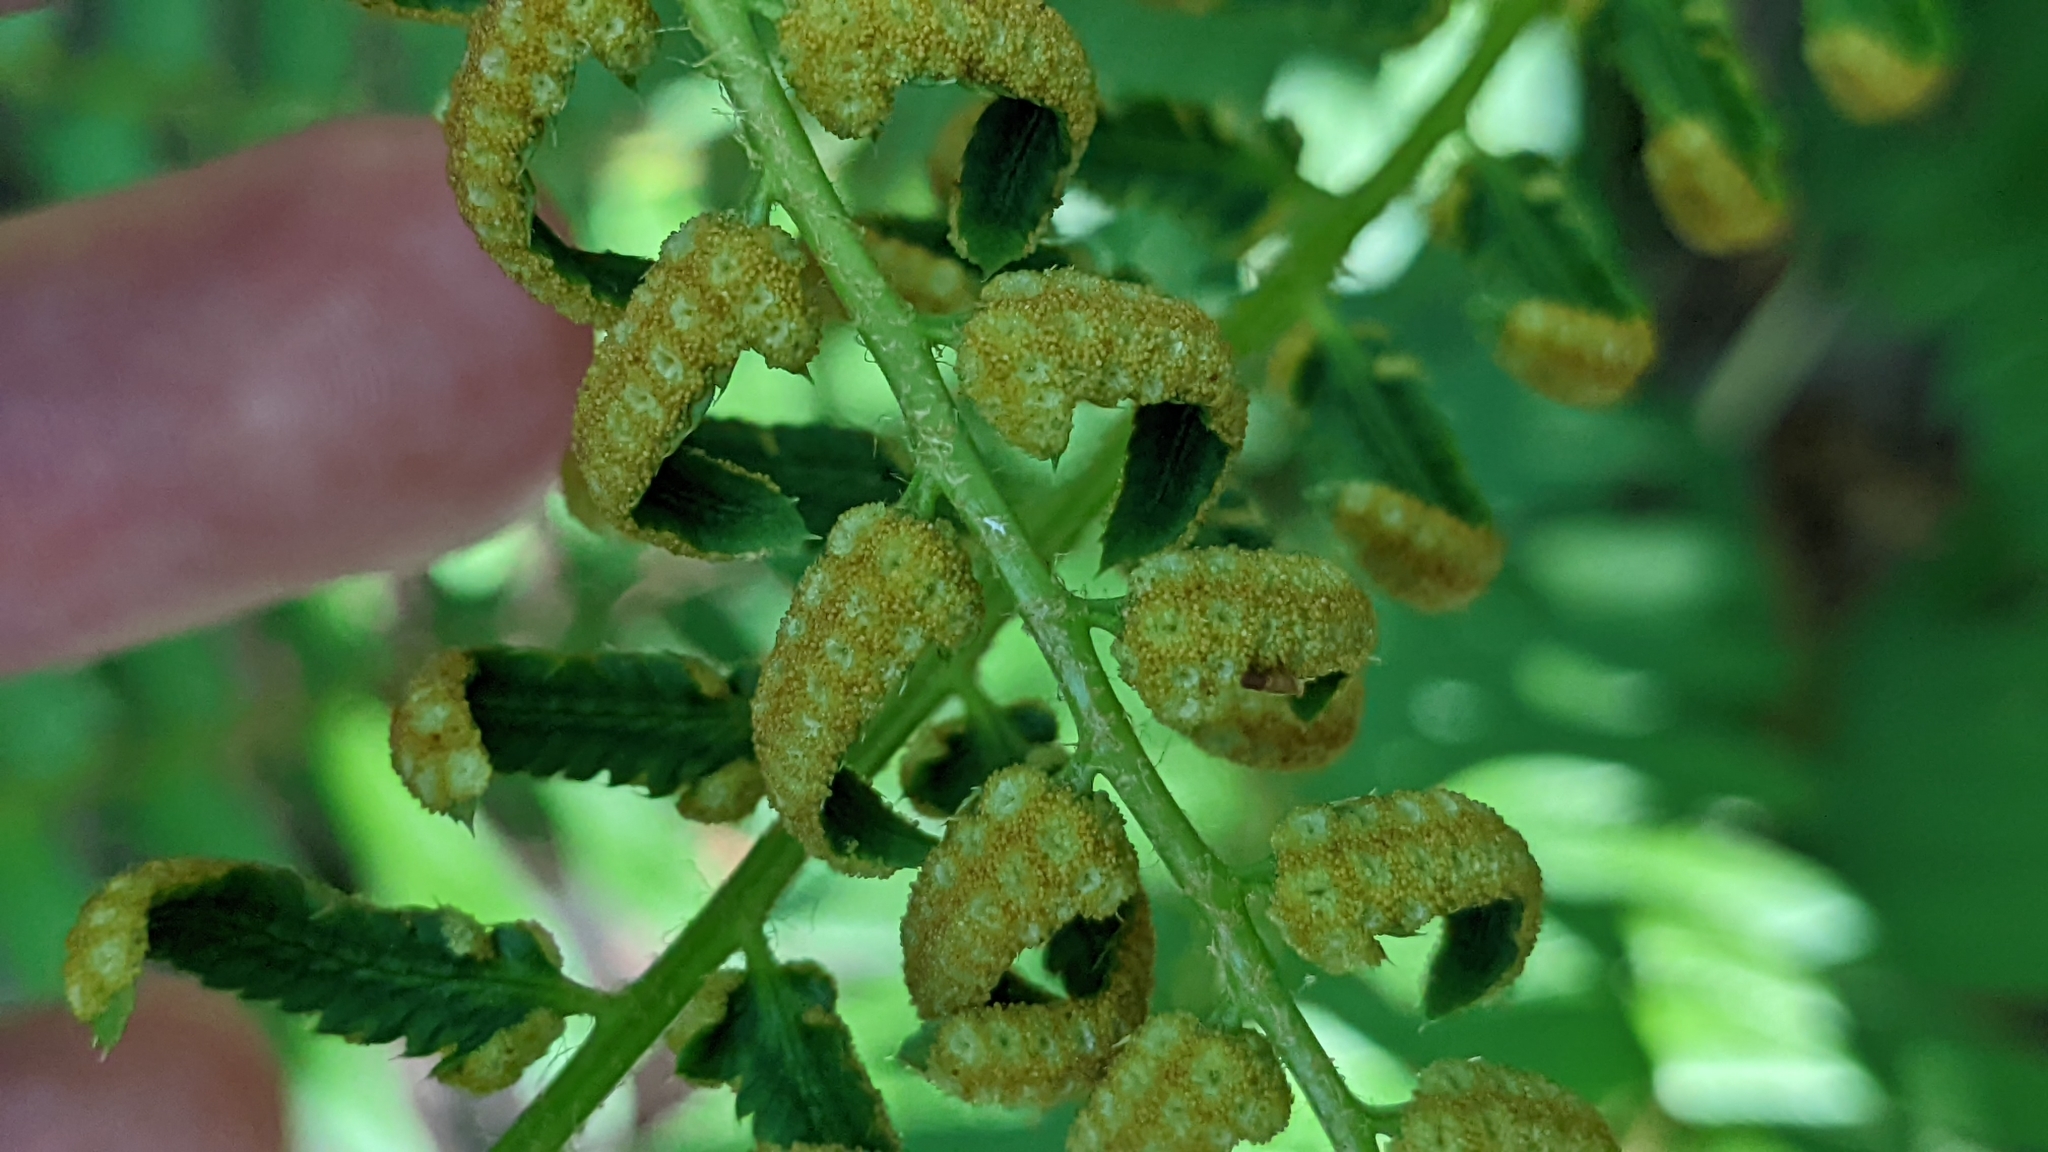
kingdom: Plantae
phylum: Tracheophyta
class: Polypodiopsida
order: Polypodiales
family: Dryopteridaceae
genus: Polystichum
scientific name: Polystichum acrostichoides
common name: Christmas fern
